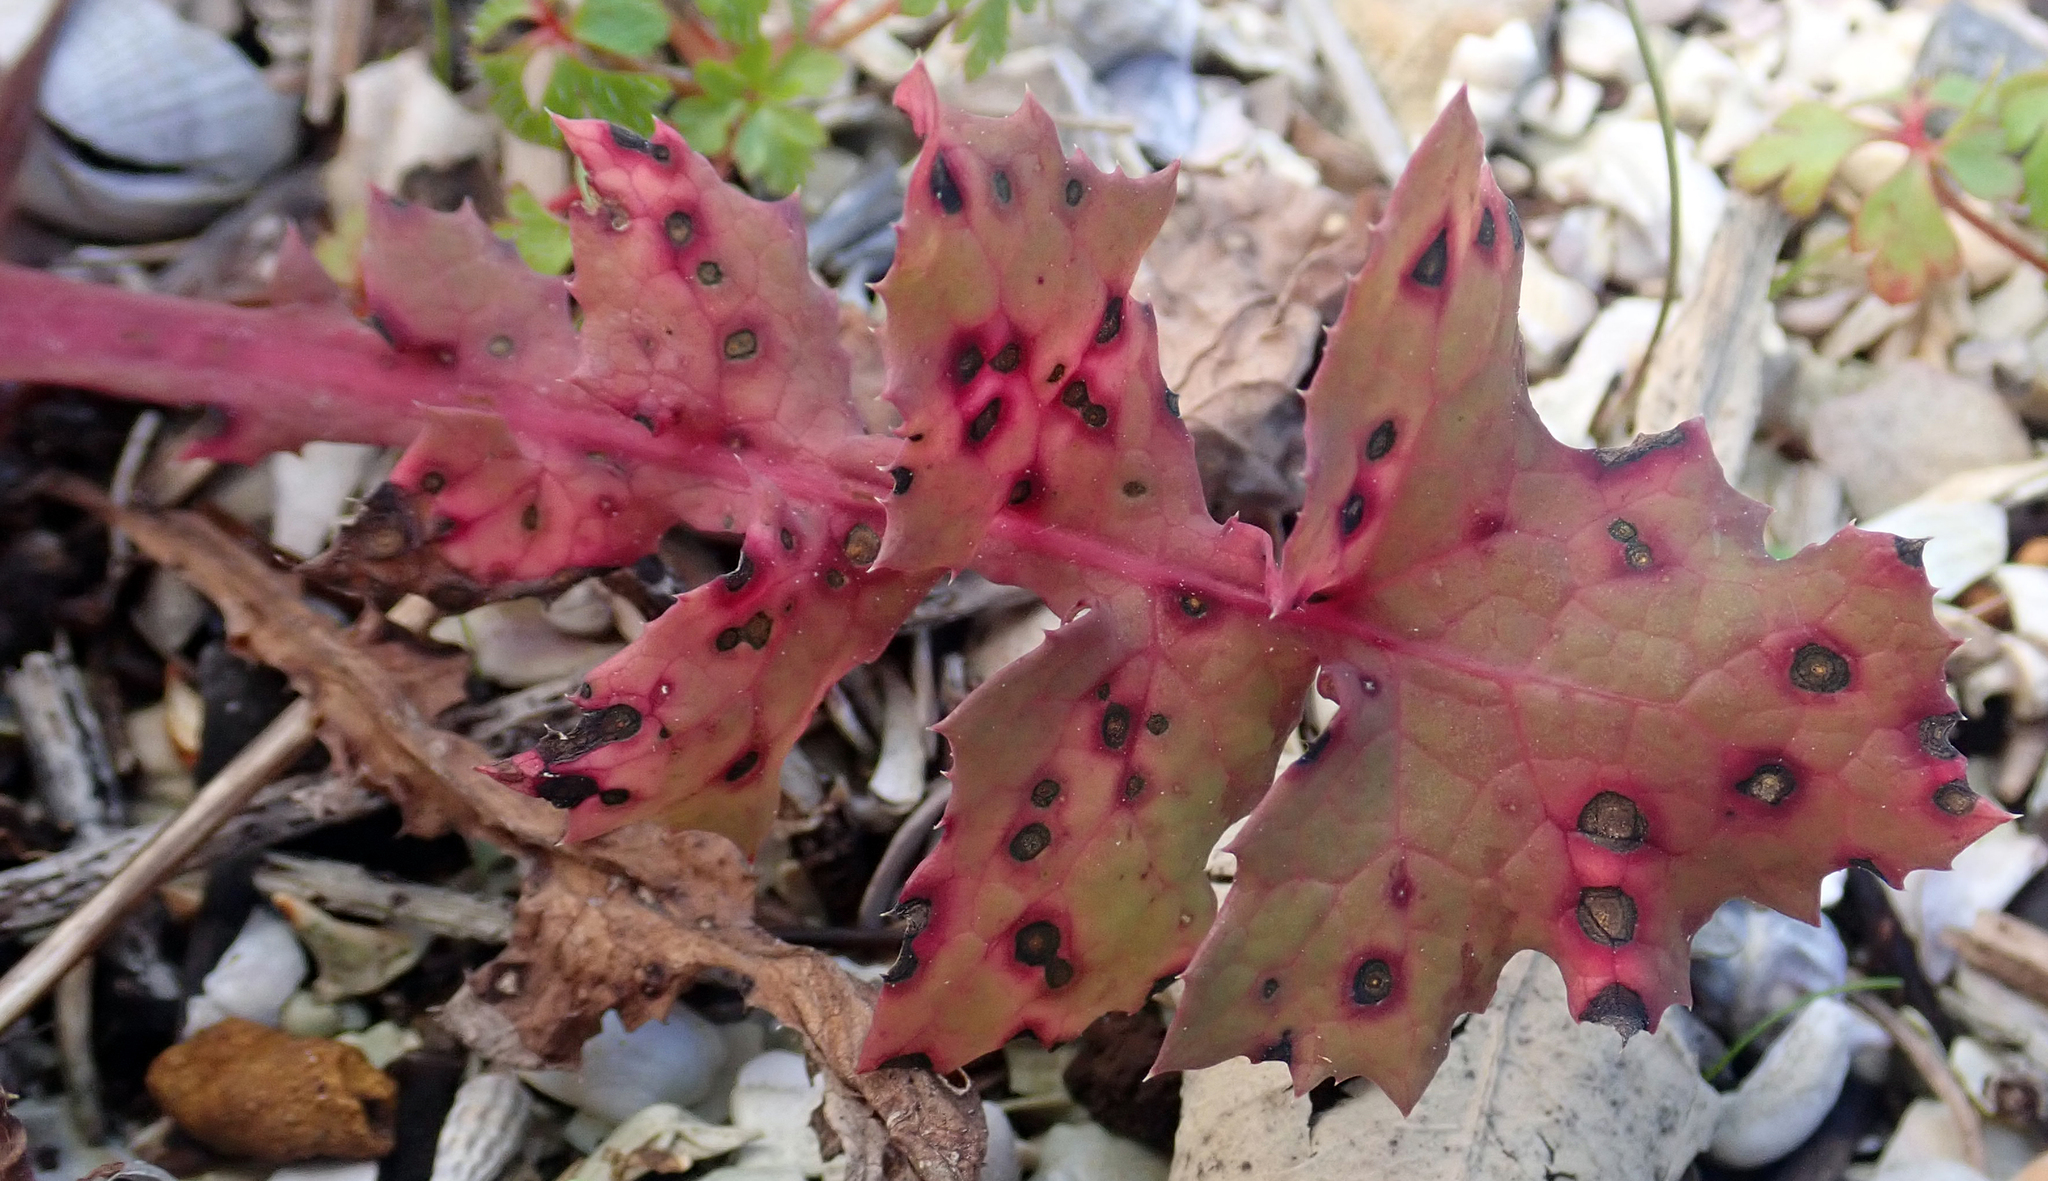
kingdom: Fungi
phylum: Basidiomycota
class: Pucciniomycetes
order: Pucciniales
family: Pucciniaceae
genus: Peristemma
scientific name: Peristemma pseudosphaeria
